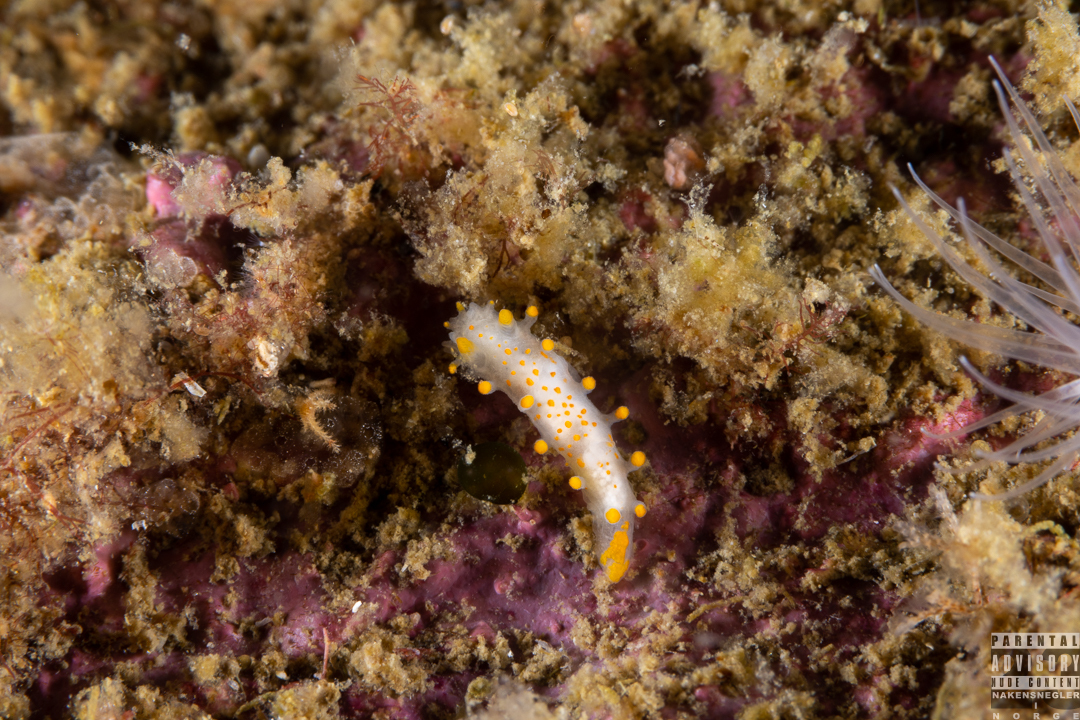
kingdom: Animalia
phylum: Mollusca
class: Gastropoda
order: Nudibranchia
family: Polyceridae
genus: Limacia
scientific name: Limacia clavigera
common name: Orange-clubbed sea slug
